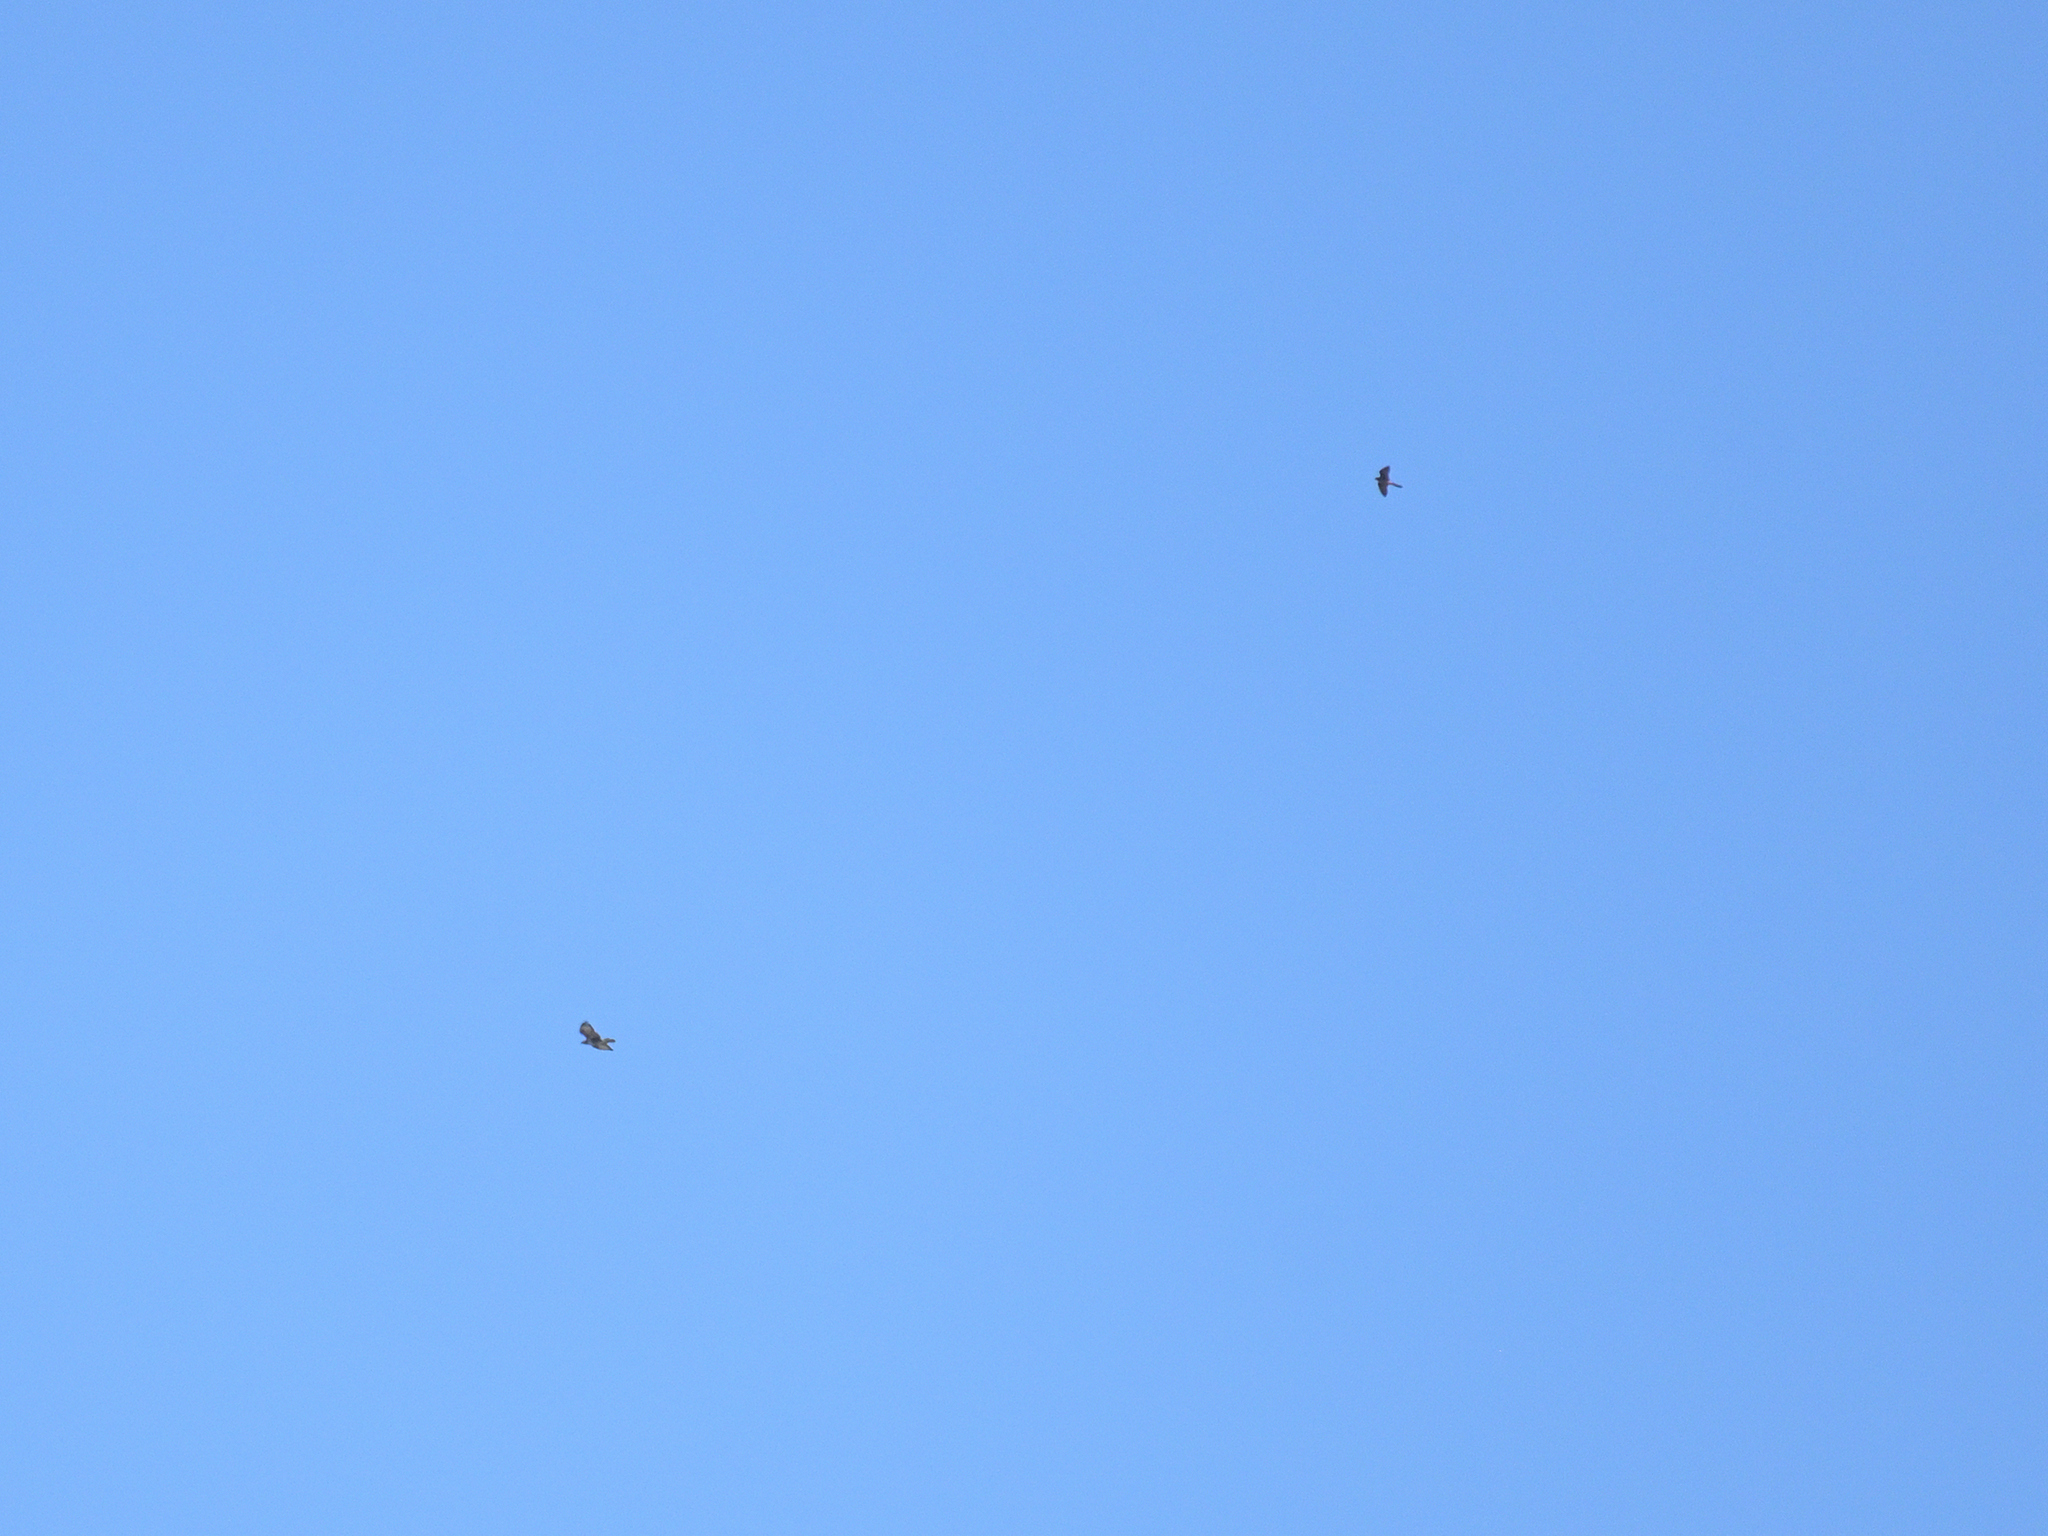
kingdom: Animalia
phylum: Chordata
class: Aves
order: Falconiformes
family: Falconidae
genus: Falco
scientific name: Falco eleonorae
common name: Eleonora's falcon
